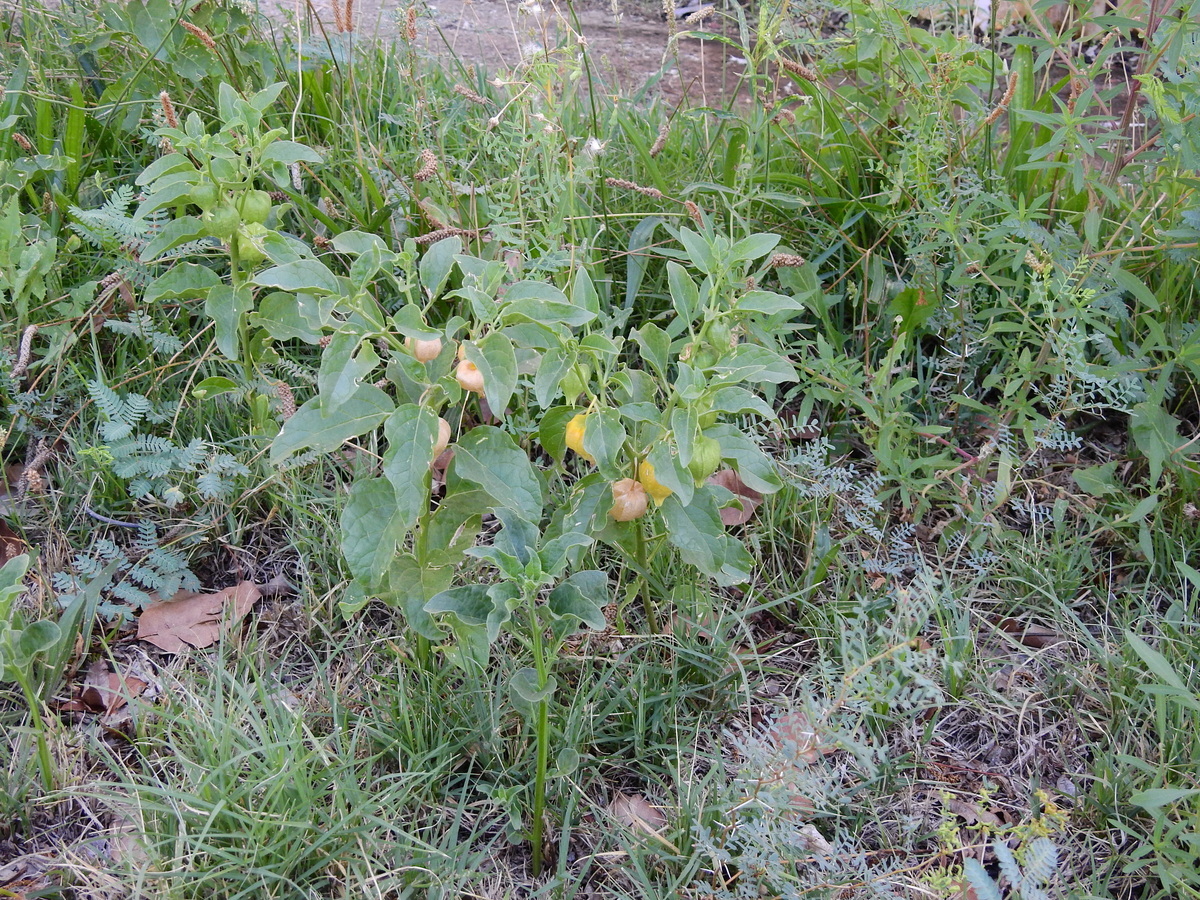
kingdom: Plantae
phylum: Tracheophyta
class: Magnoliopsida
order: Solanales
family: Solanaceae
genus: Physalis
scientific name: Physalis viscosa
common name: Stellate ground-cherry
